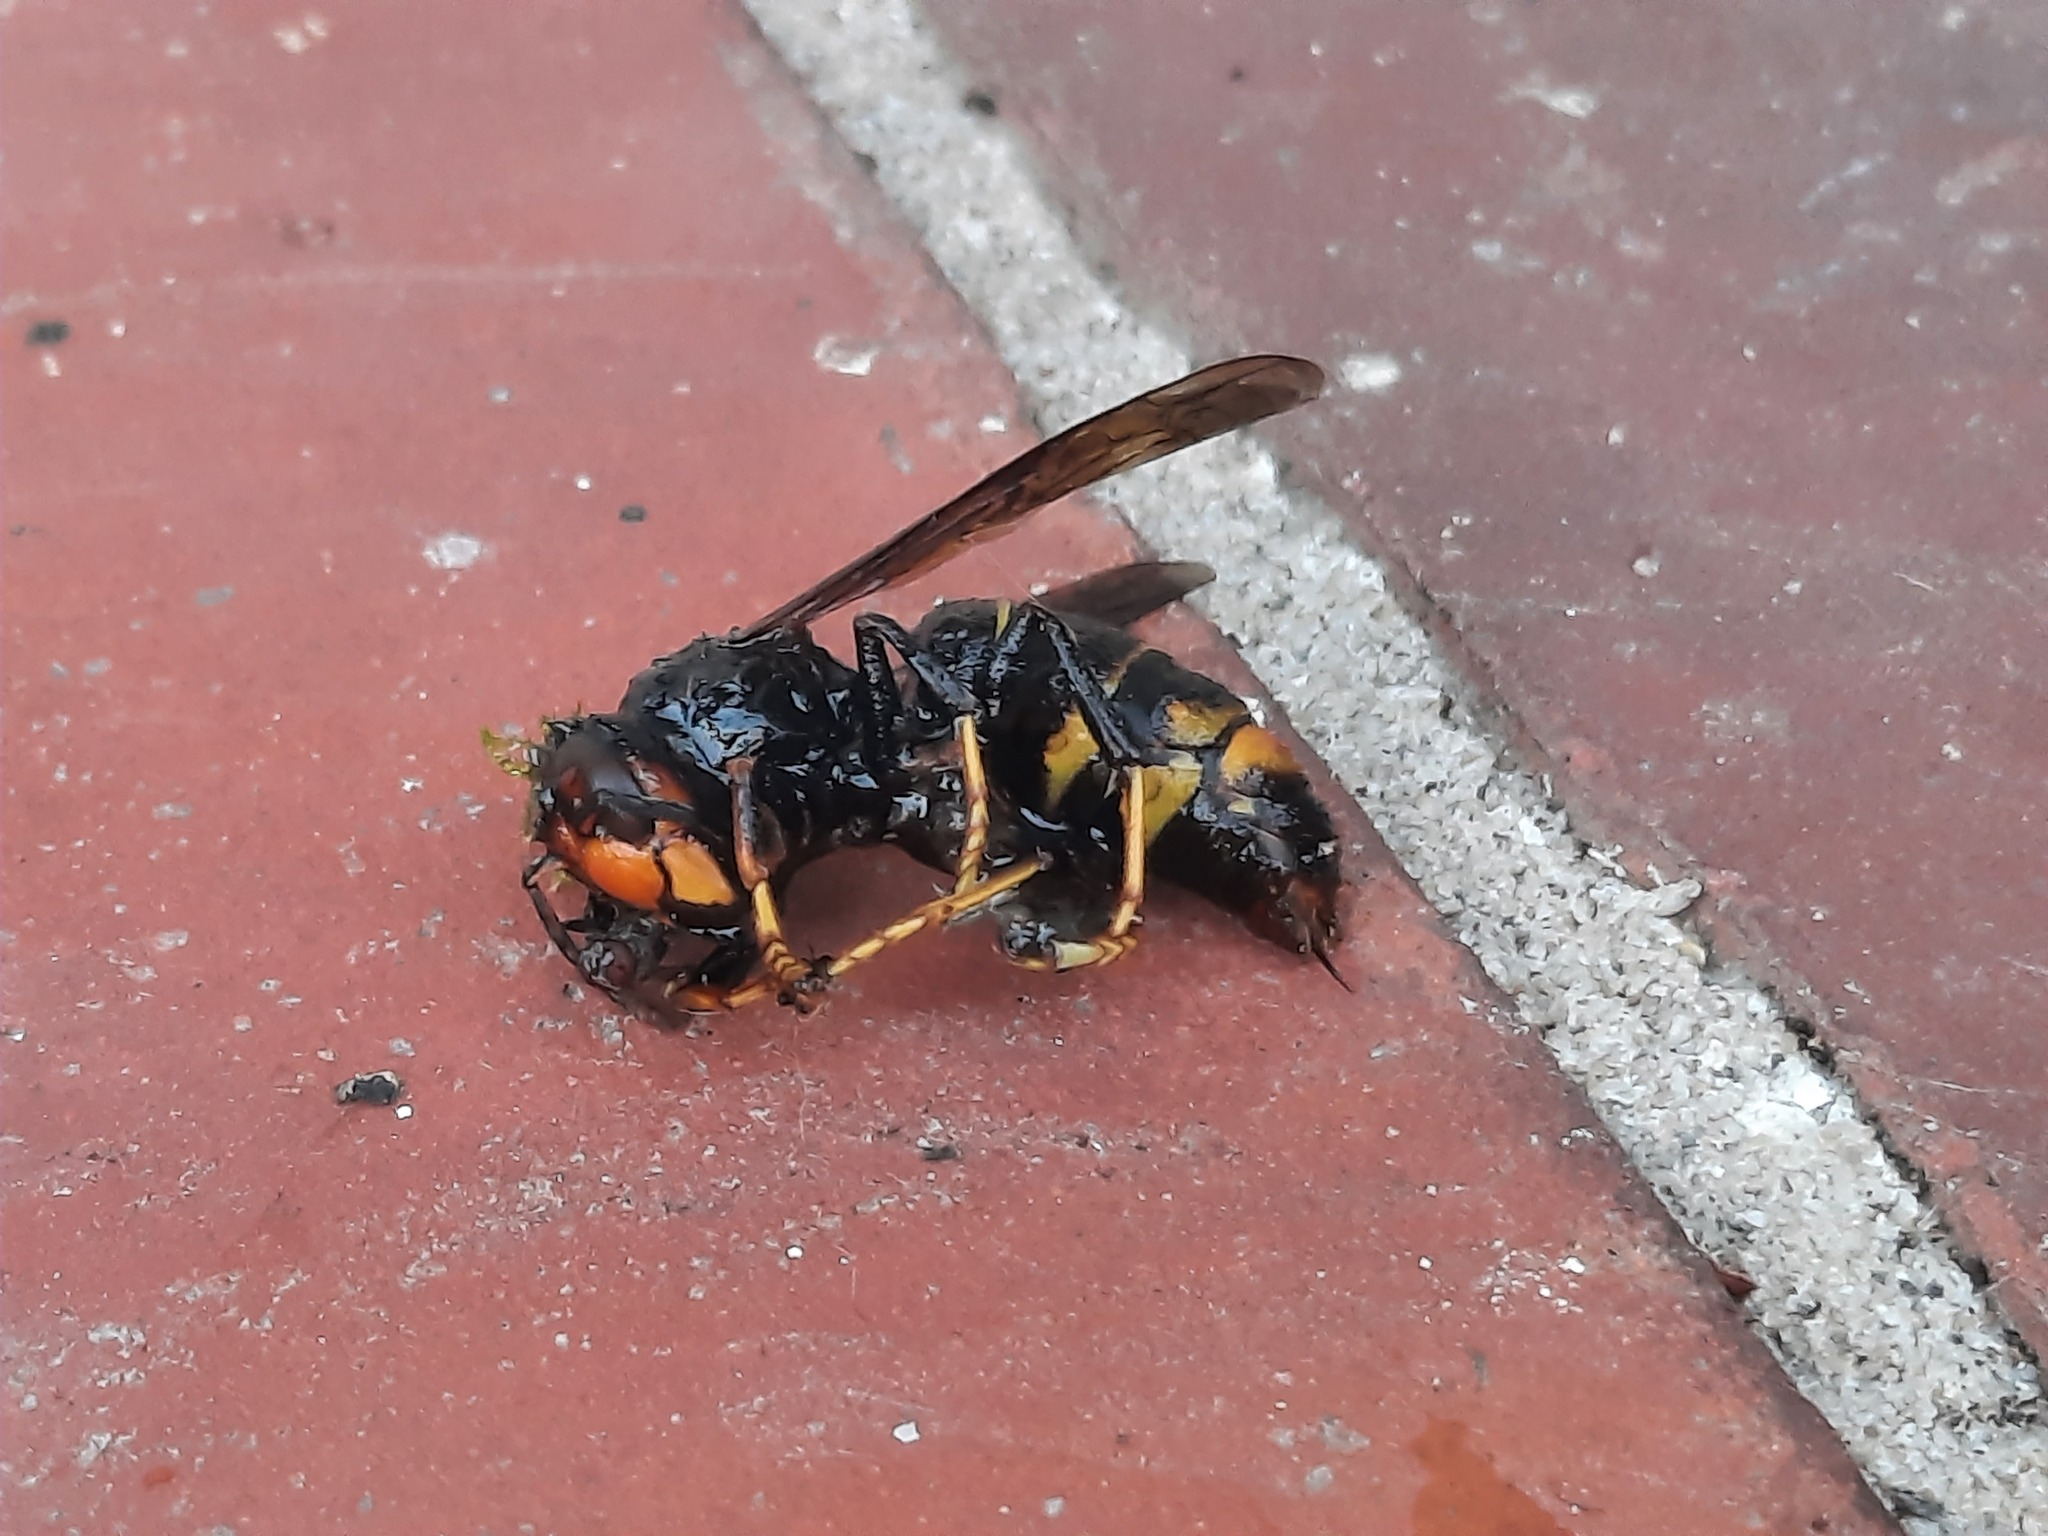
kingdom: Animalia
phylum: Arthropoda
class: Insecta
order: Hymenoptera
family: Vespidae
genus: Vespa
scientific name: Vespa velutina
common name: Asian hornet
